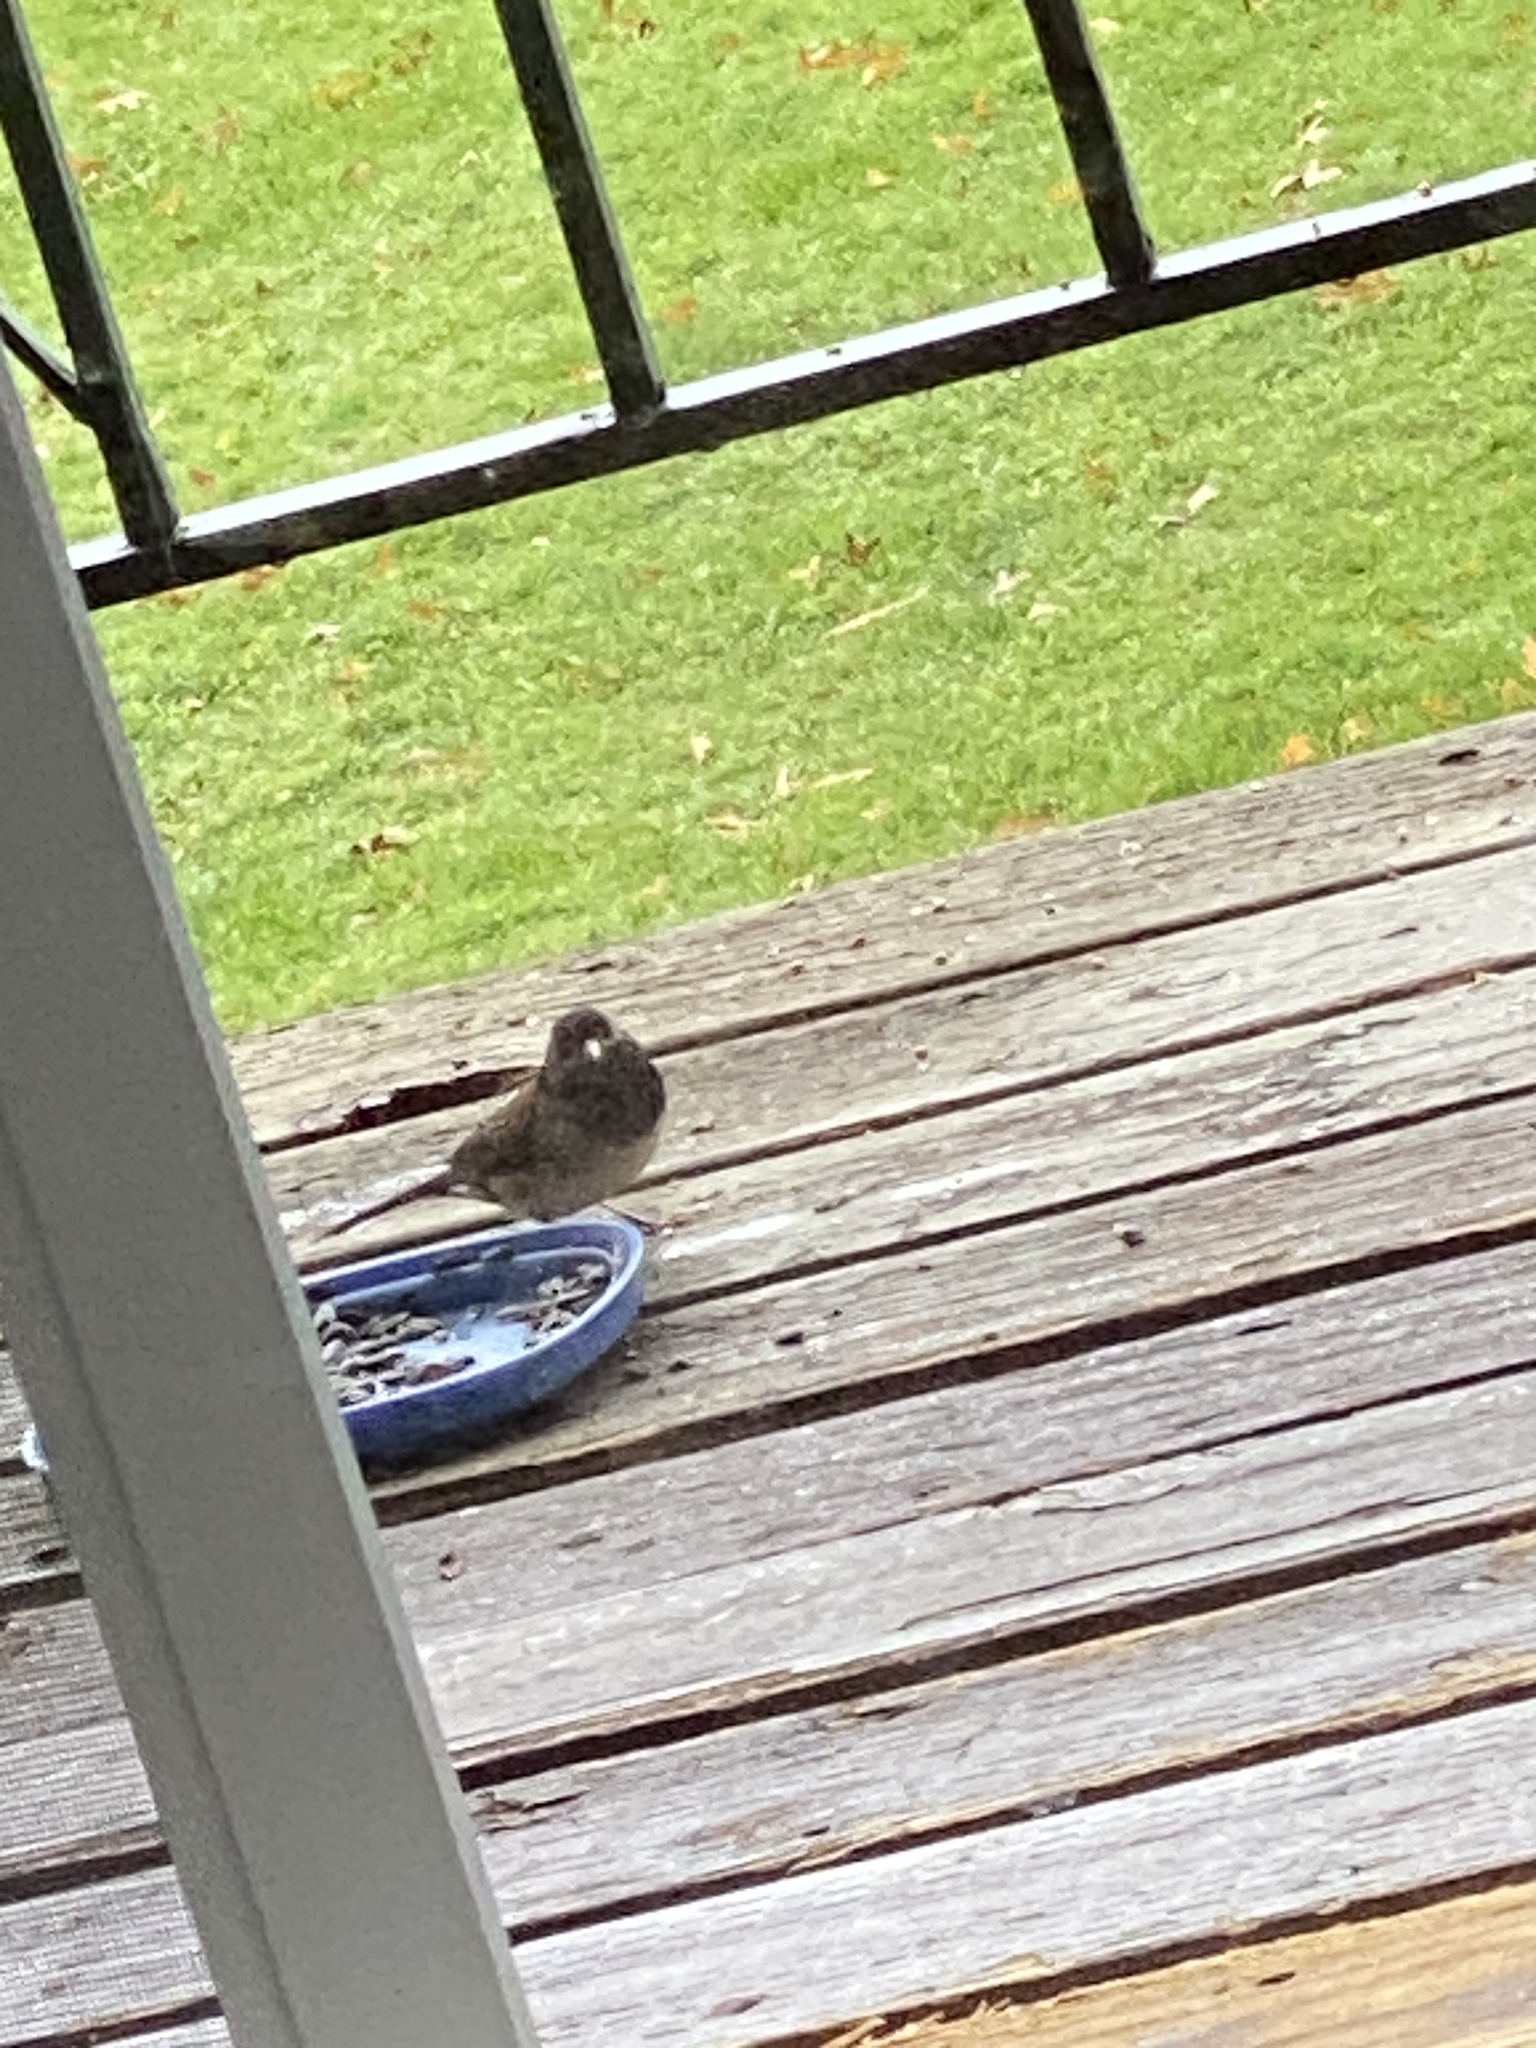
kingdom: Animalia
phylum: Chordata
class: Aves
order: Passeriformes
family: Passerellidae
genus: Junco
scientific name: Junco hyemalis
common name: Dark-eyed junco
